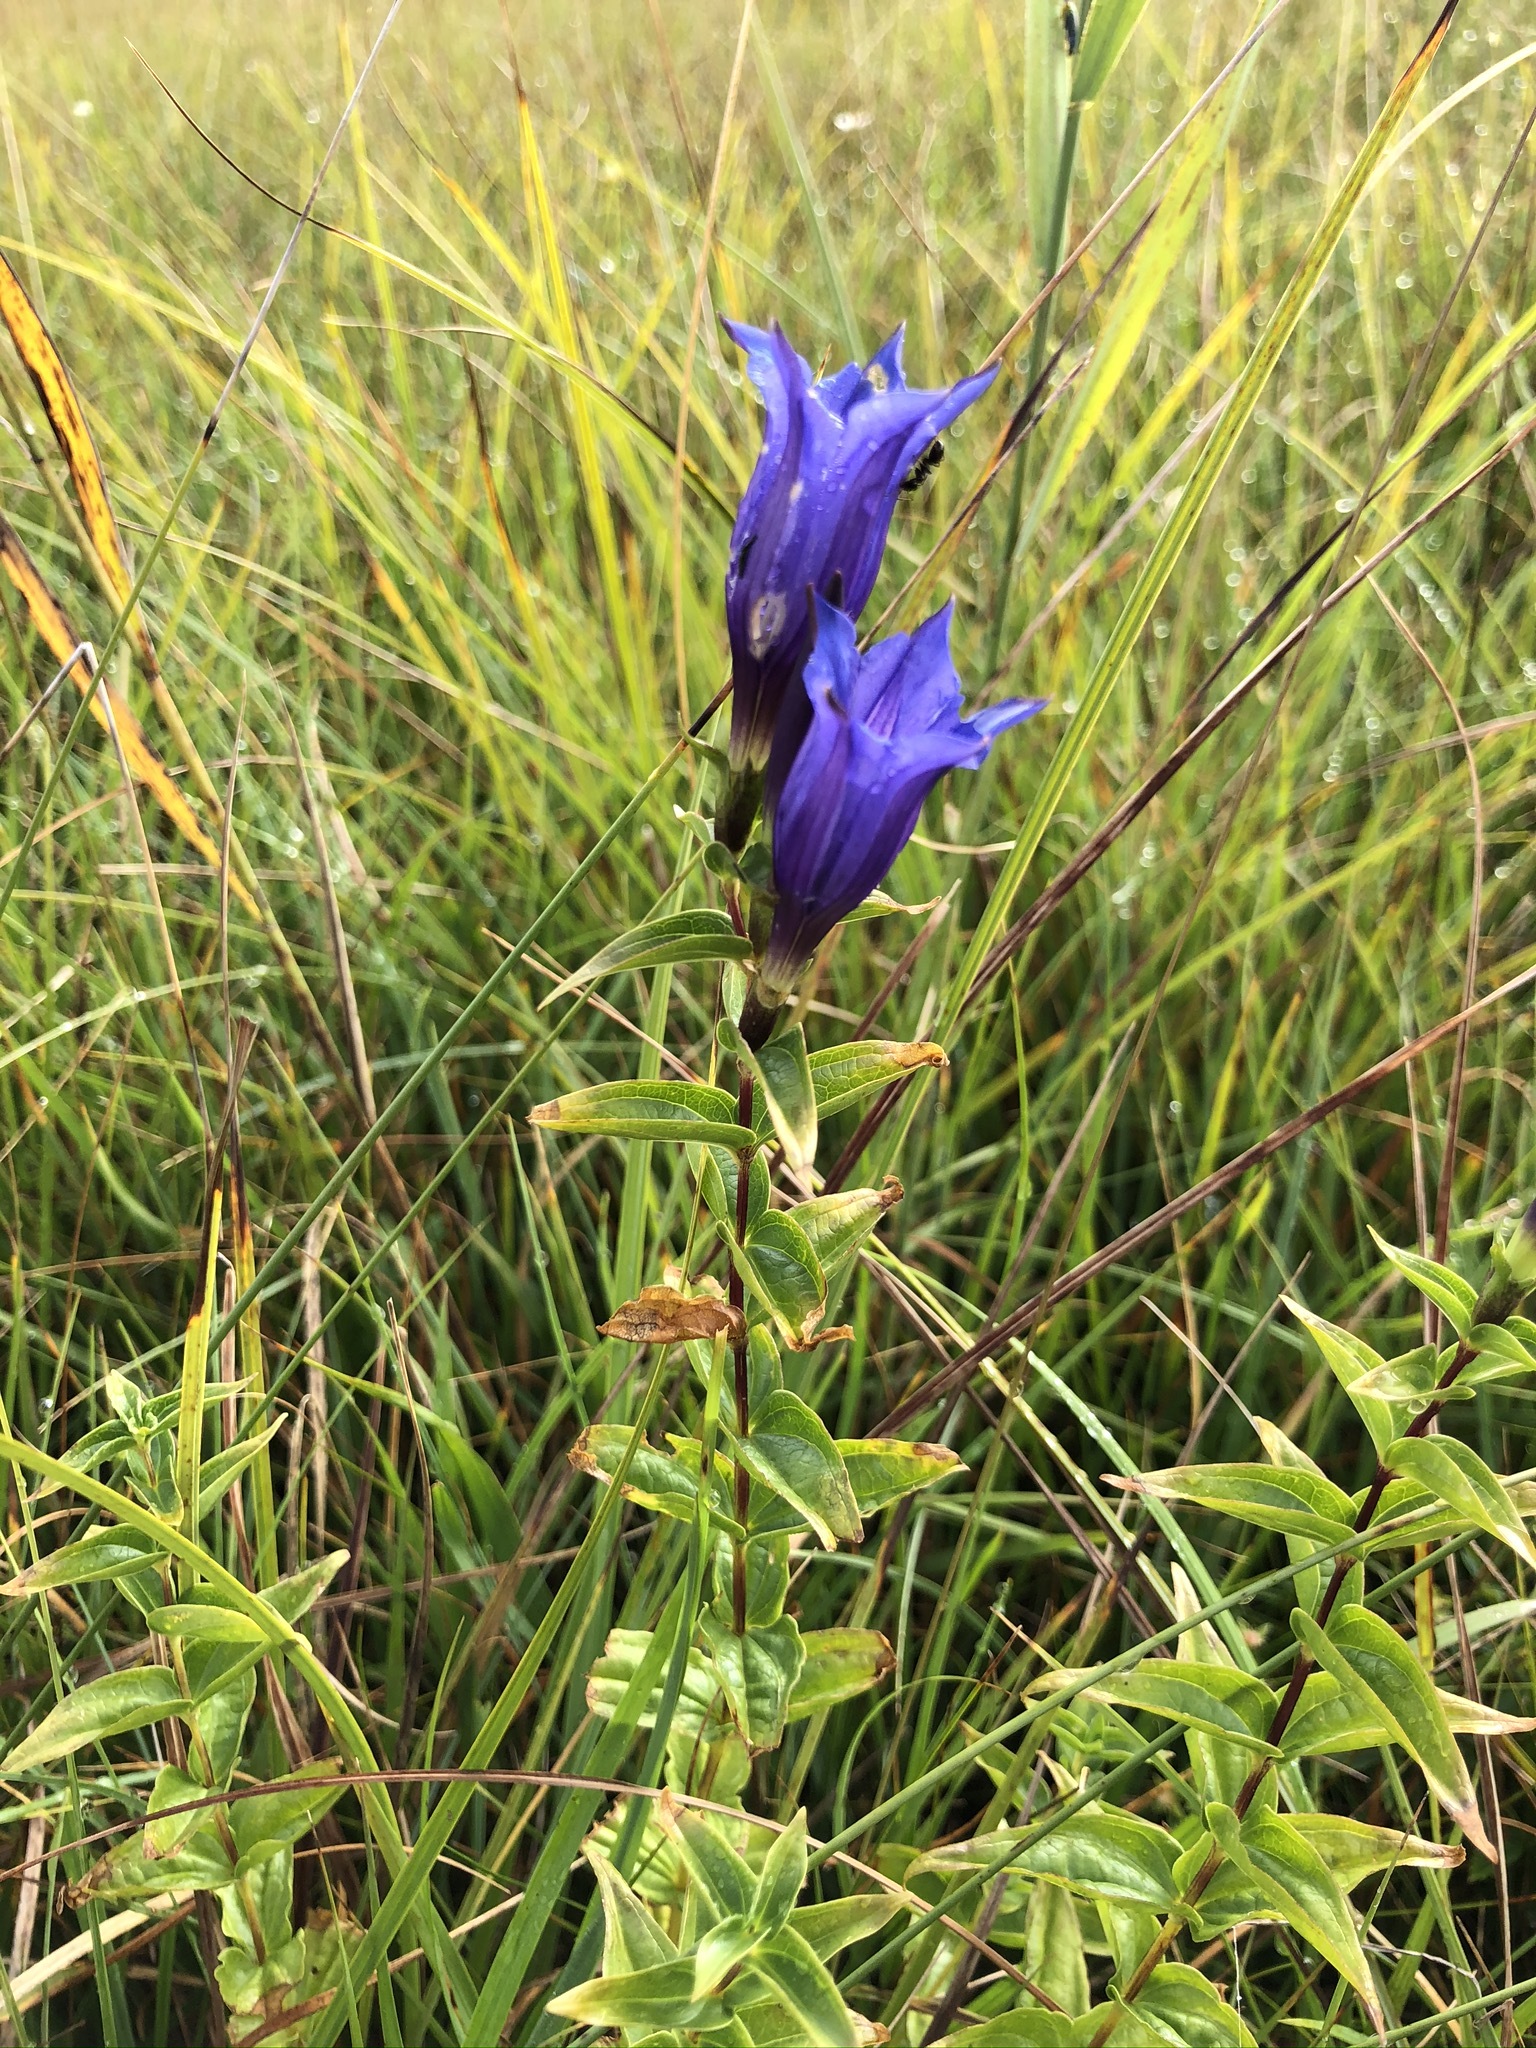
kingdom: Plantae
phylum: Tracheophyta
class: Magnoliopsida
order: Gentianales
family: Gentianaceae
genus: Gentiana
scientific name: Gentiana asclepiadea
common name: Willow gentian
